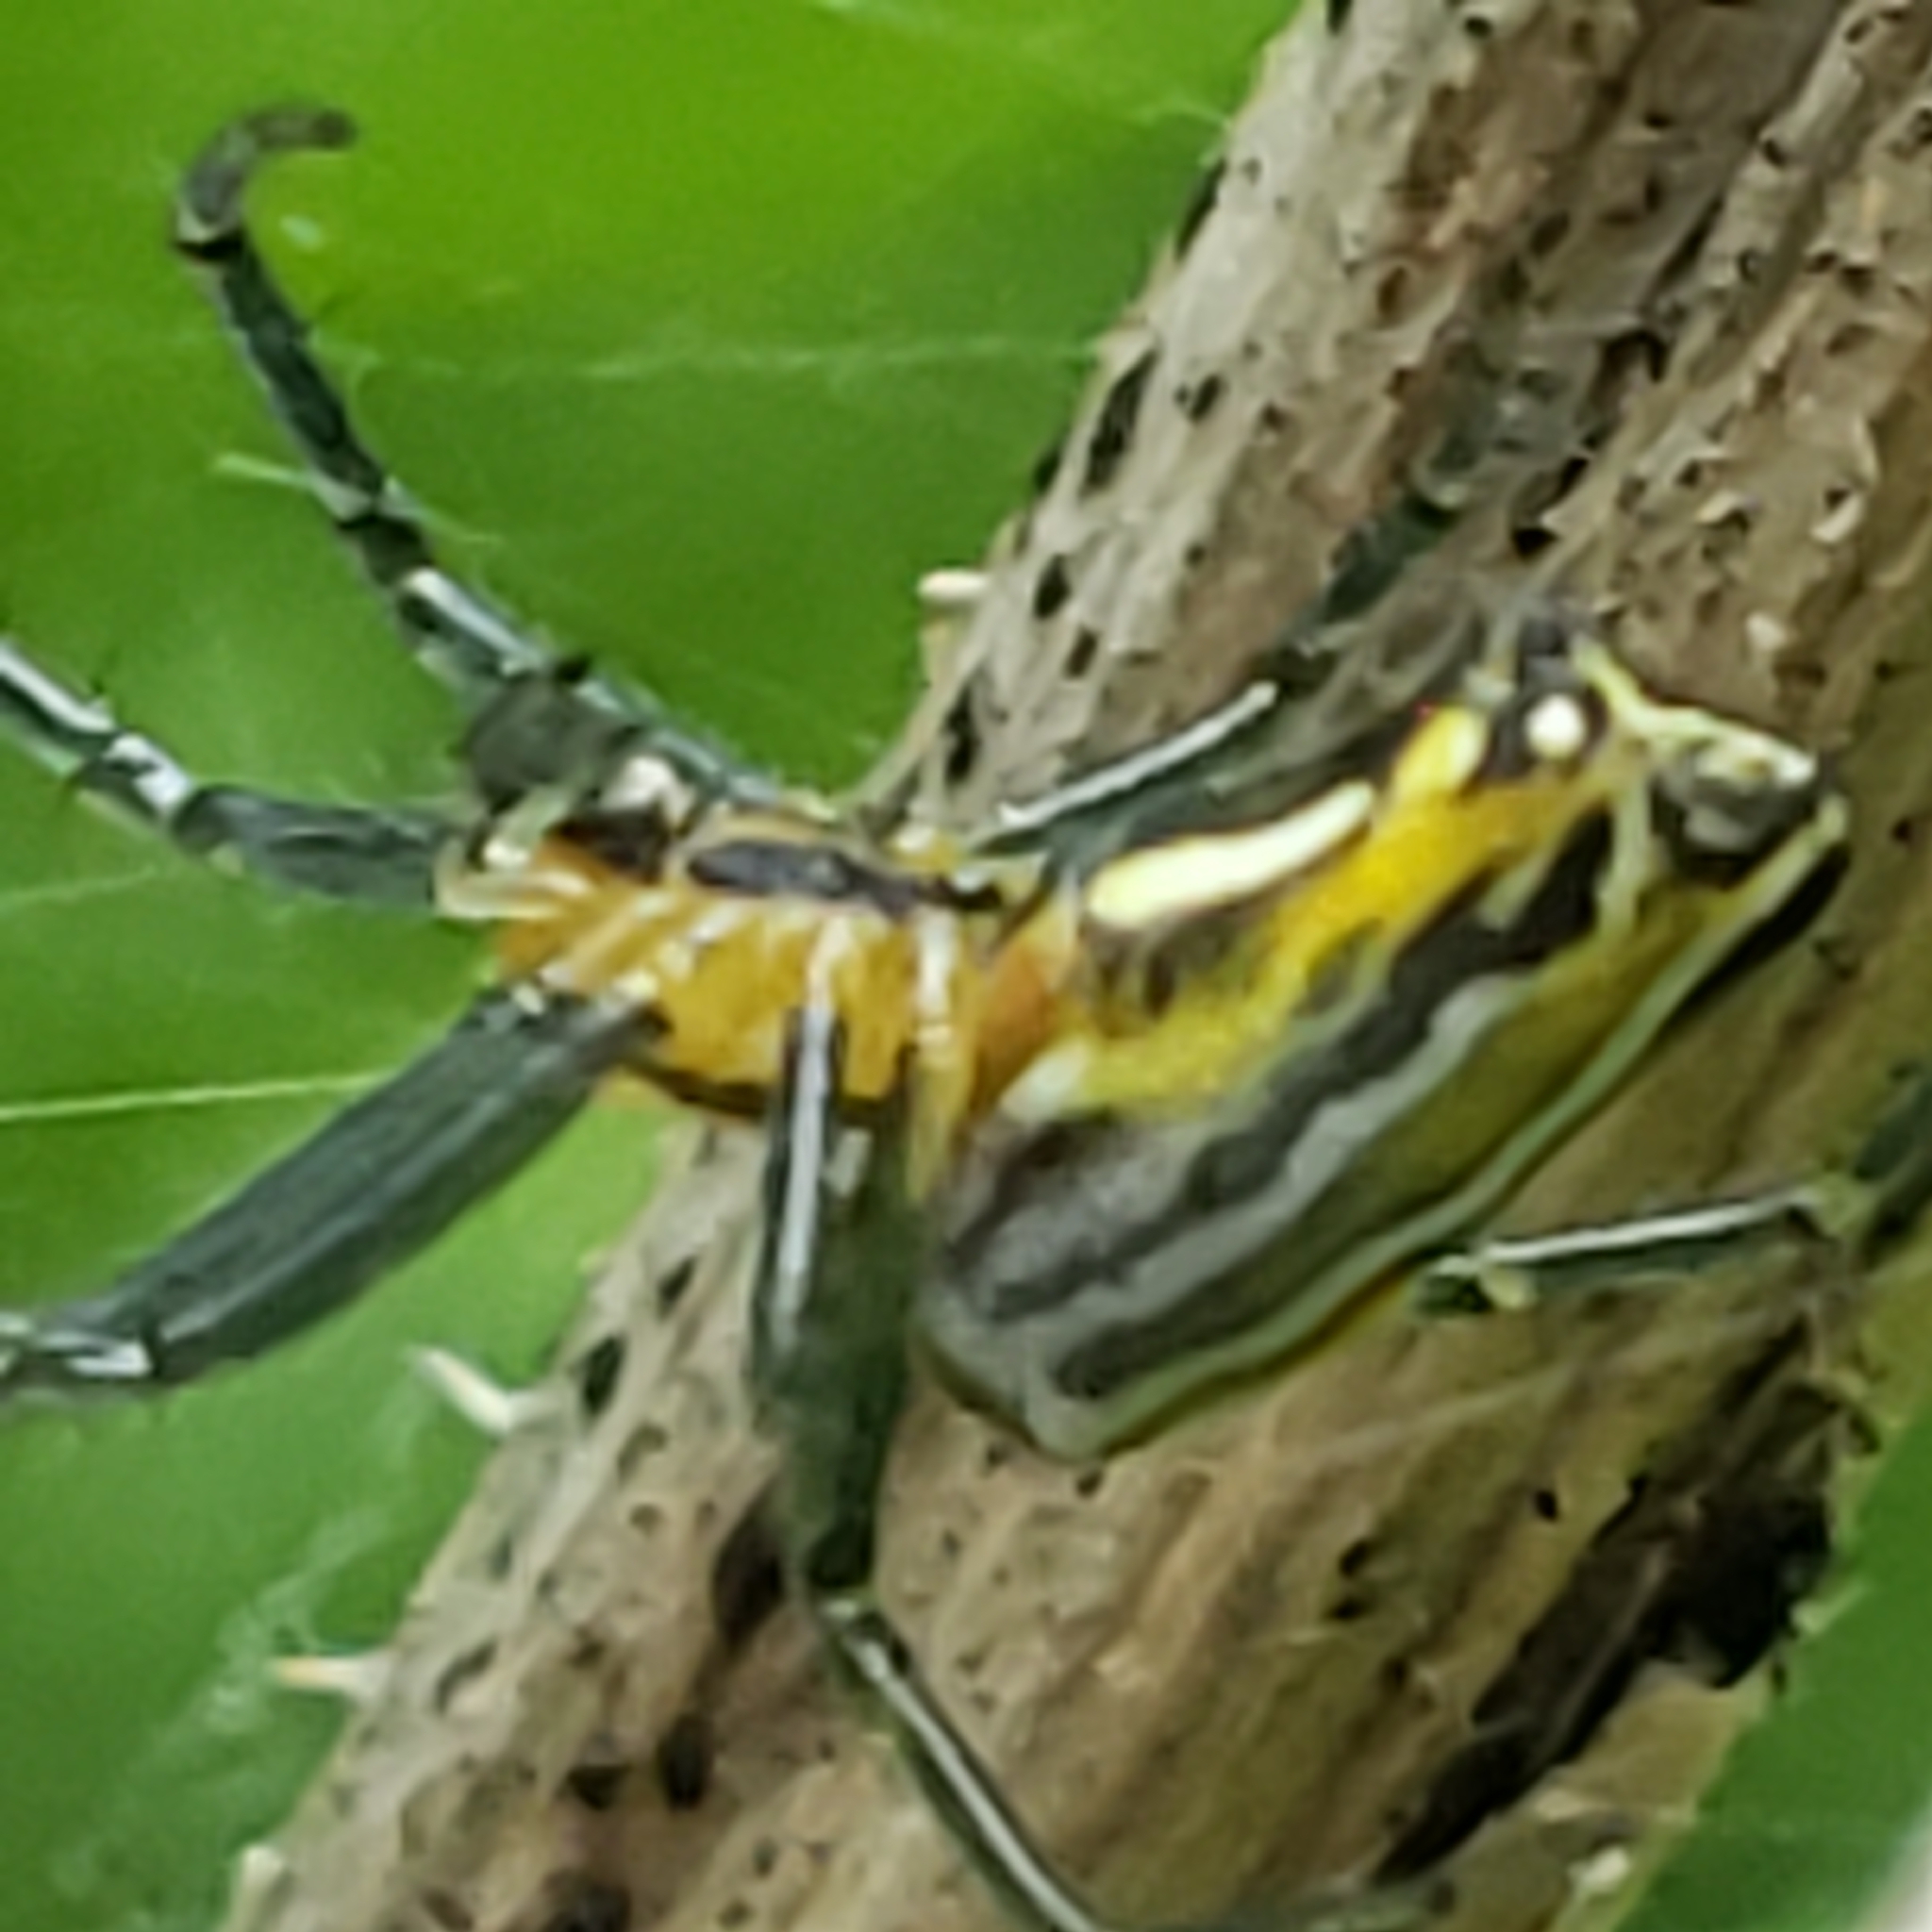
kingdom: Animalia
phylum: Arthropoda
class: Arachnida
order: Araneae
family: Araneidae
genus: Mecynogea
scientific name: Mecynogea lemniscata
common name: Orb weavers
